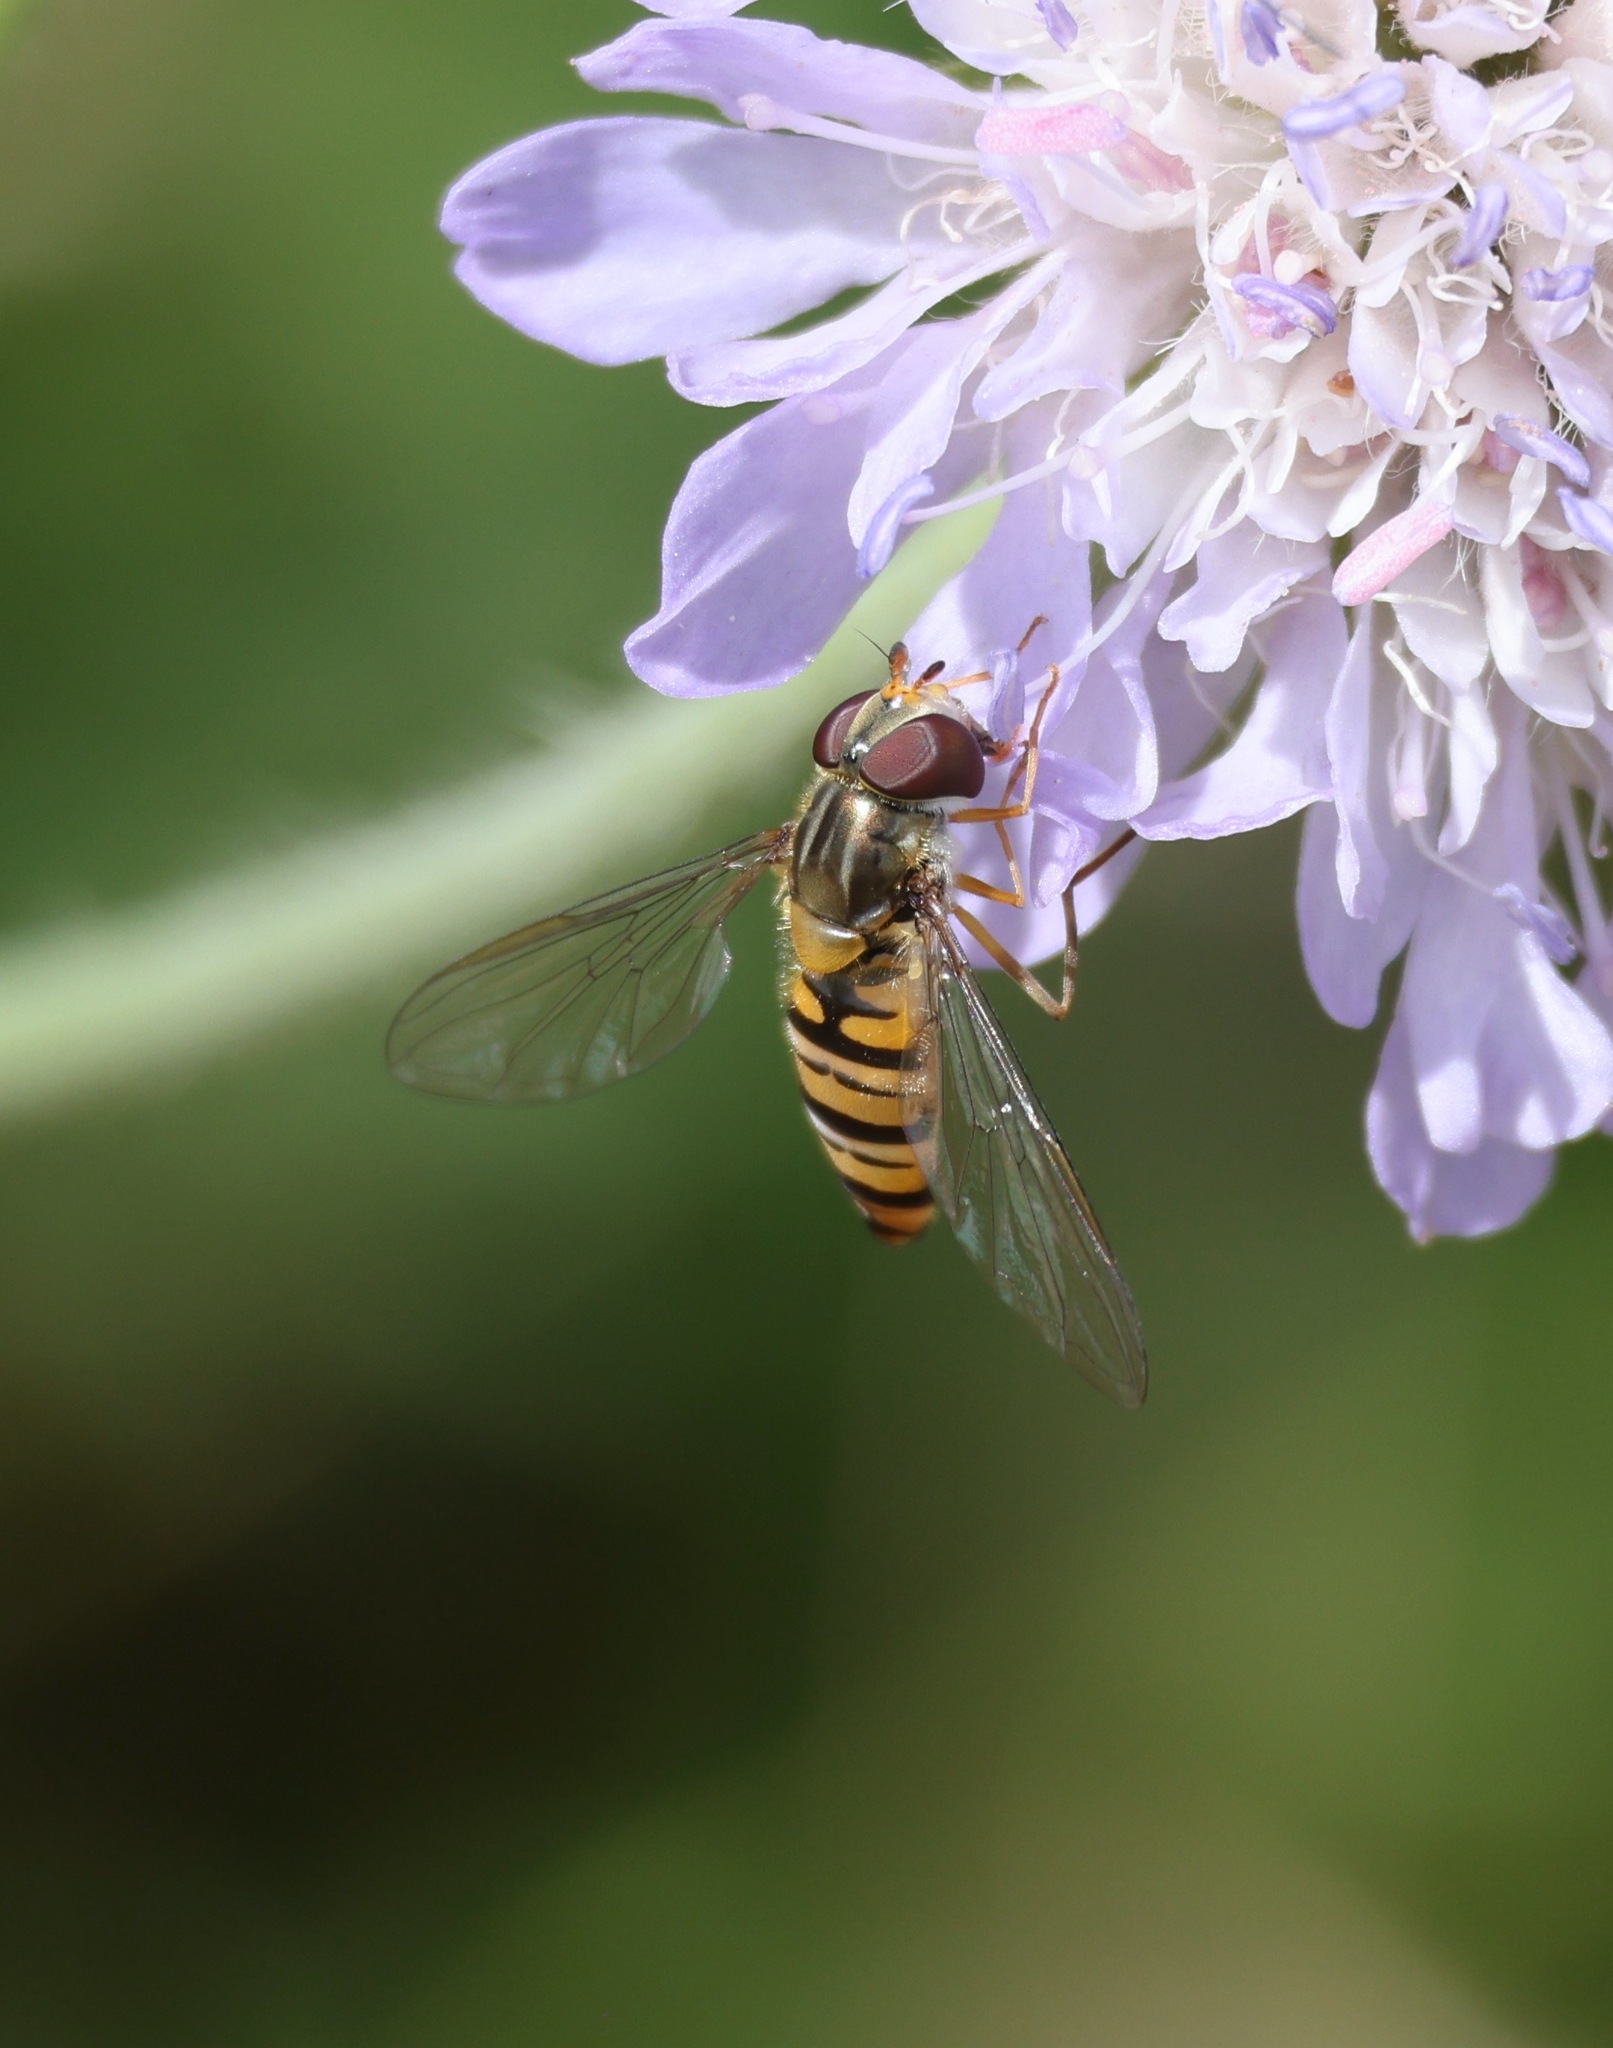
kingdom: Animalia
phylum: Arthropoda
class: Insecta
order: Diptera
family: Syrphidae
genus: Episyrphus
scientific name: Episyrphus balteatus
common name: Marmalade hoverfly
